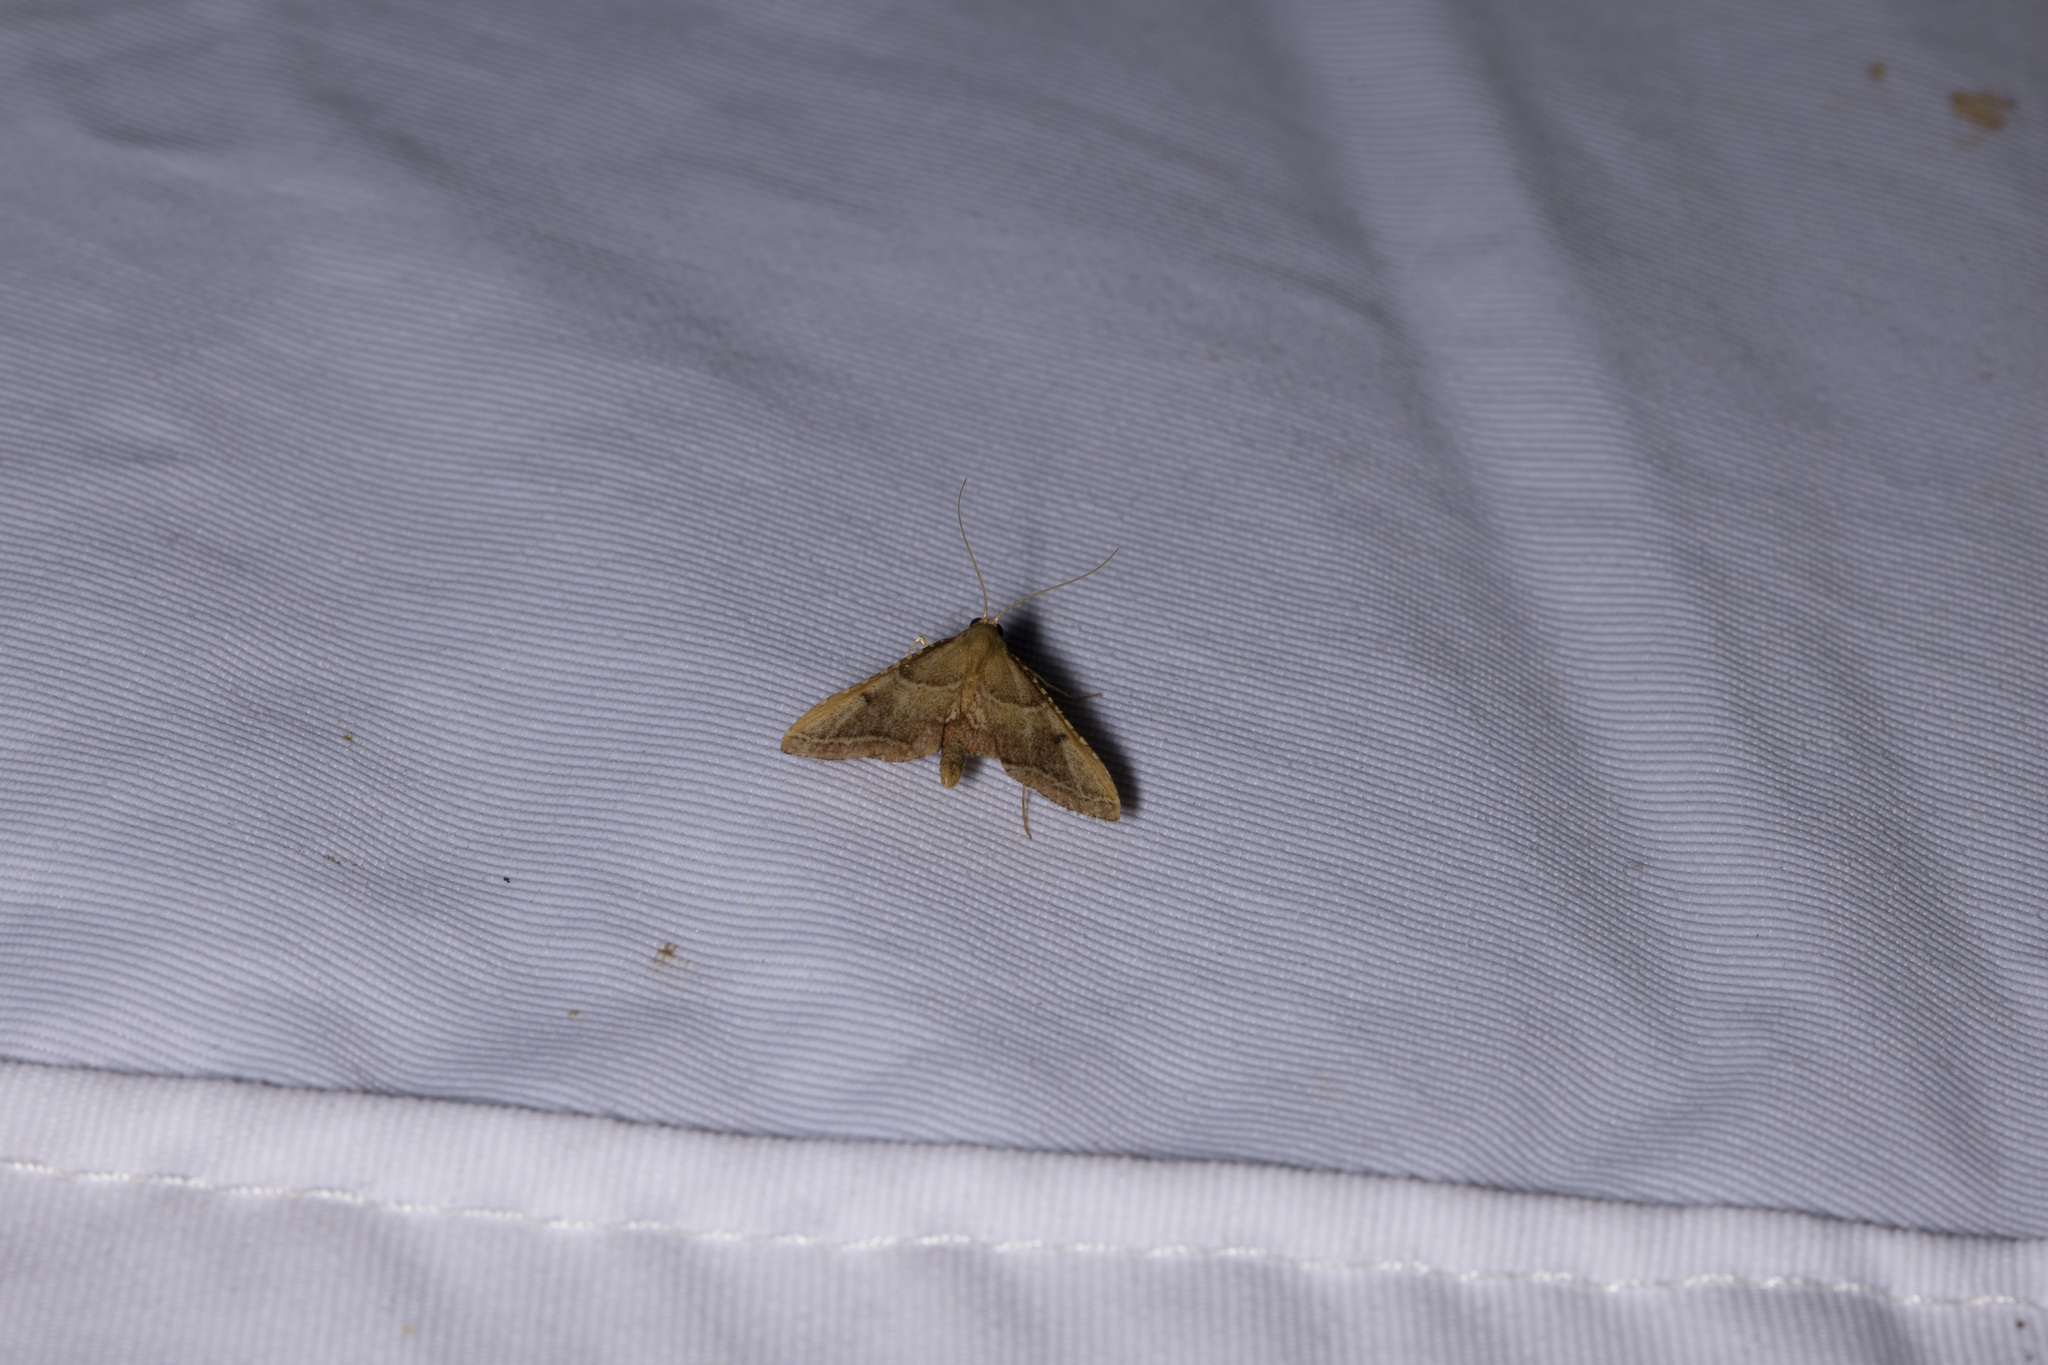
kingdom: Animalia
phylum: Arthropoda
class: Insecta
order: Lepidoptera
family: Pyralidae
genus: Endotricha
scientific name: Endotricha flammealis
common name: Rosy tabby
